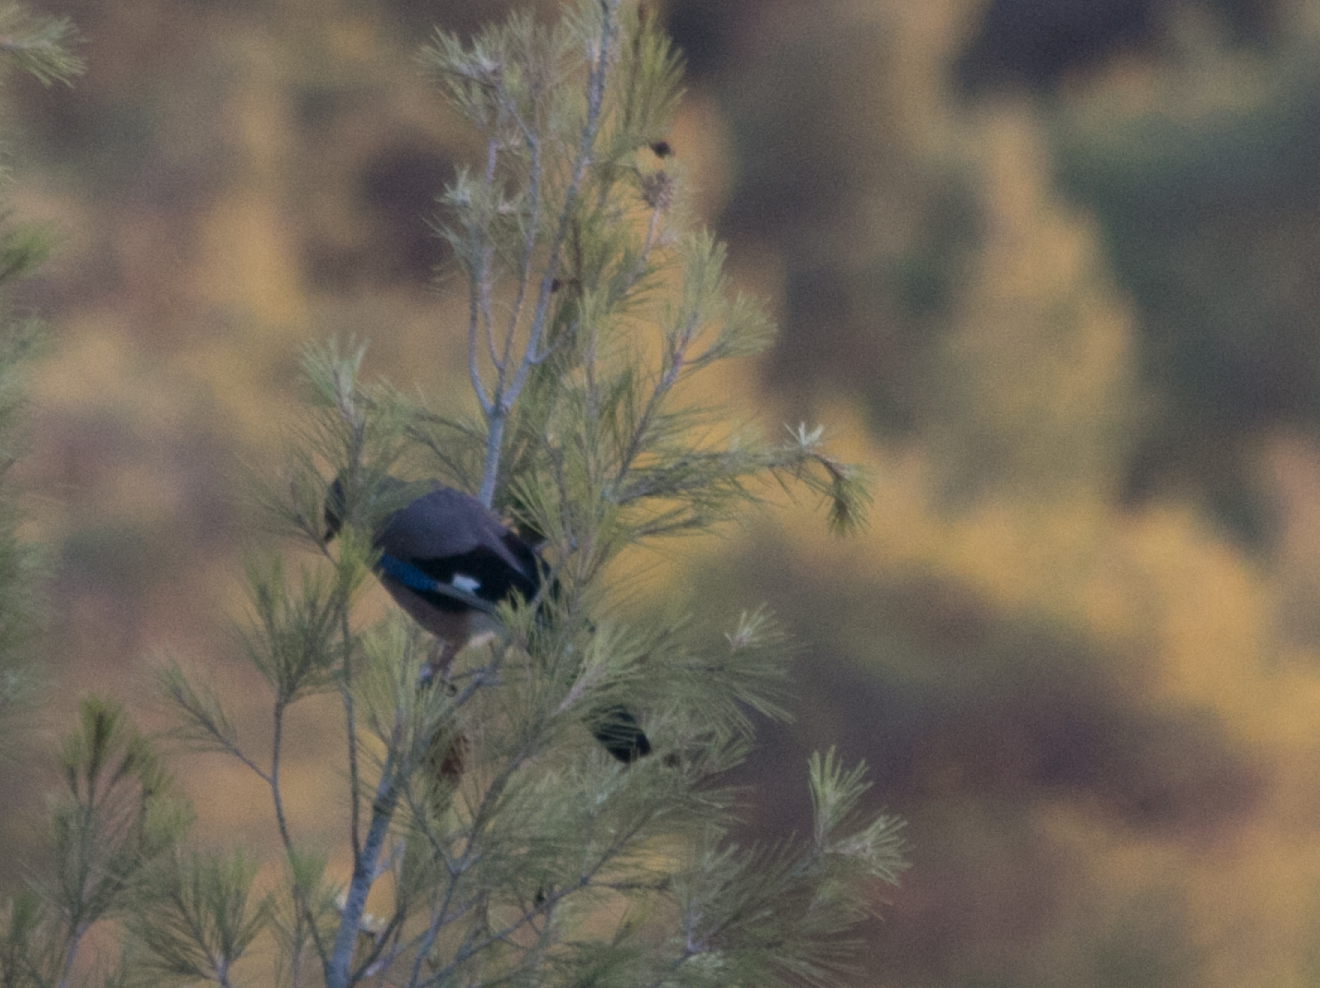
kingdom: Animalia
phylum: Chordata
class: Aves
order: Passeriformes
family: Corvidae
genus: Garrulus
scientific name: Garrulus glandarius
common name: Eurasian jay
